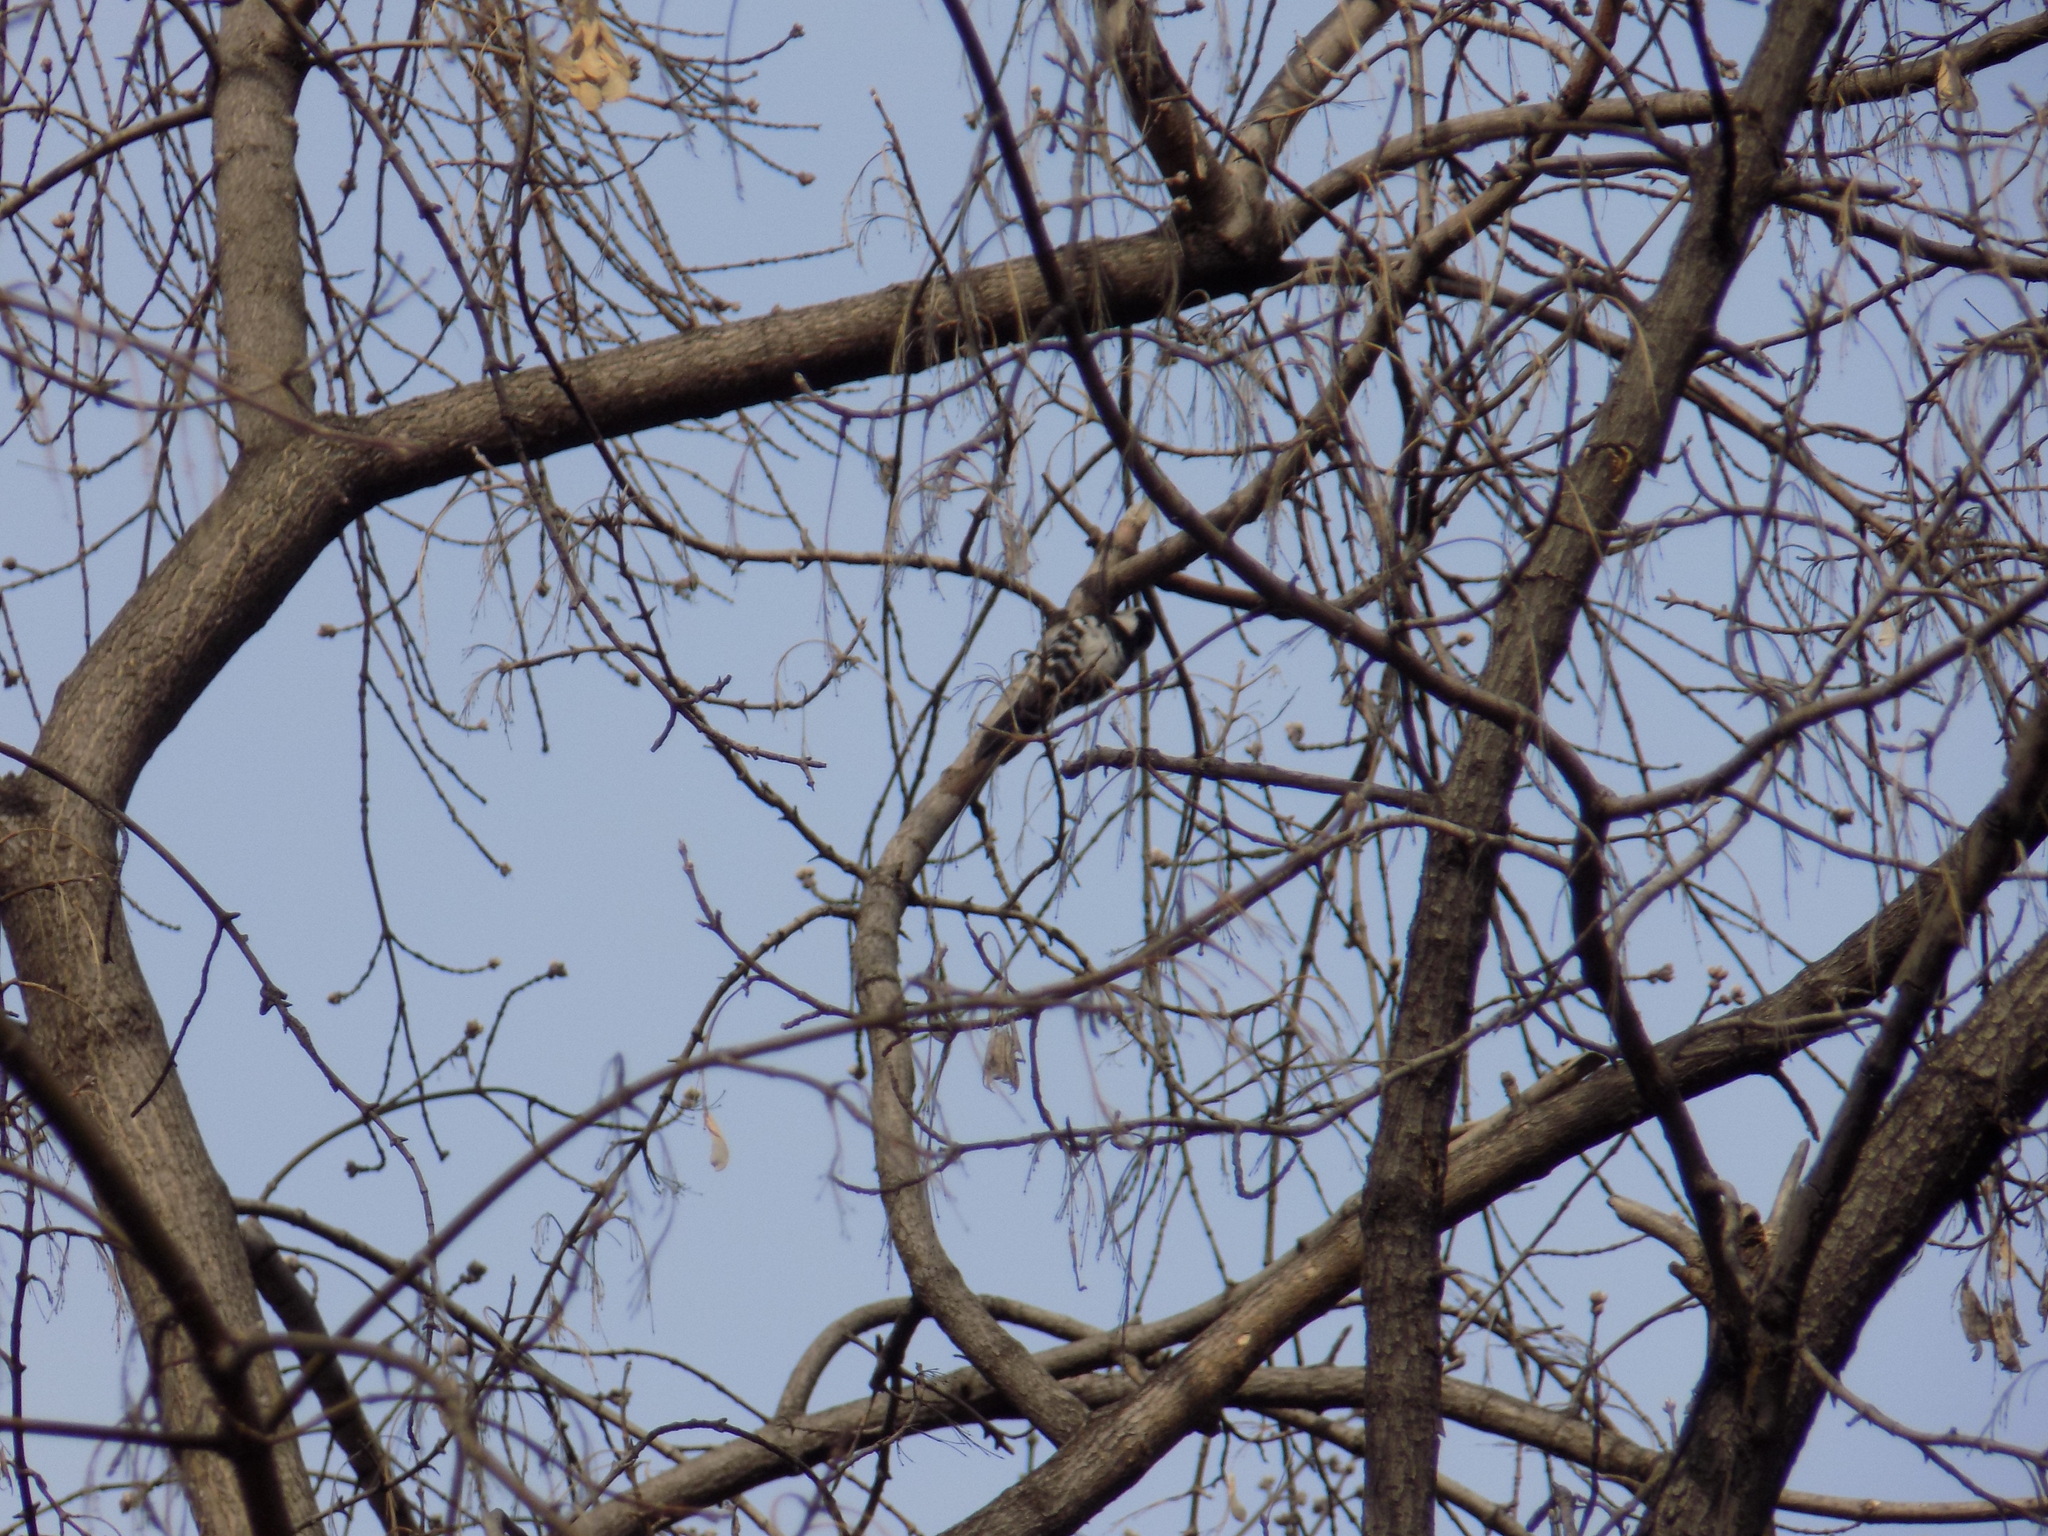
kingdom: Animalia
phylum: Chordata
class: Aves
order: Piciformes
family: Picidae
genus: Dryobates
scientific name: Dryobates minor
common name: Lesser spotted woodpecker
